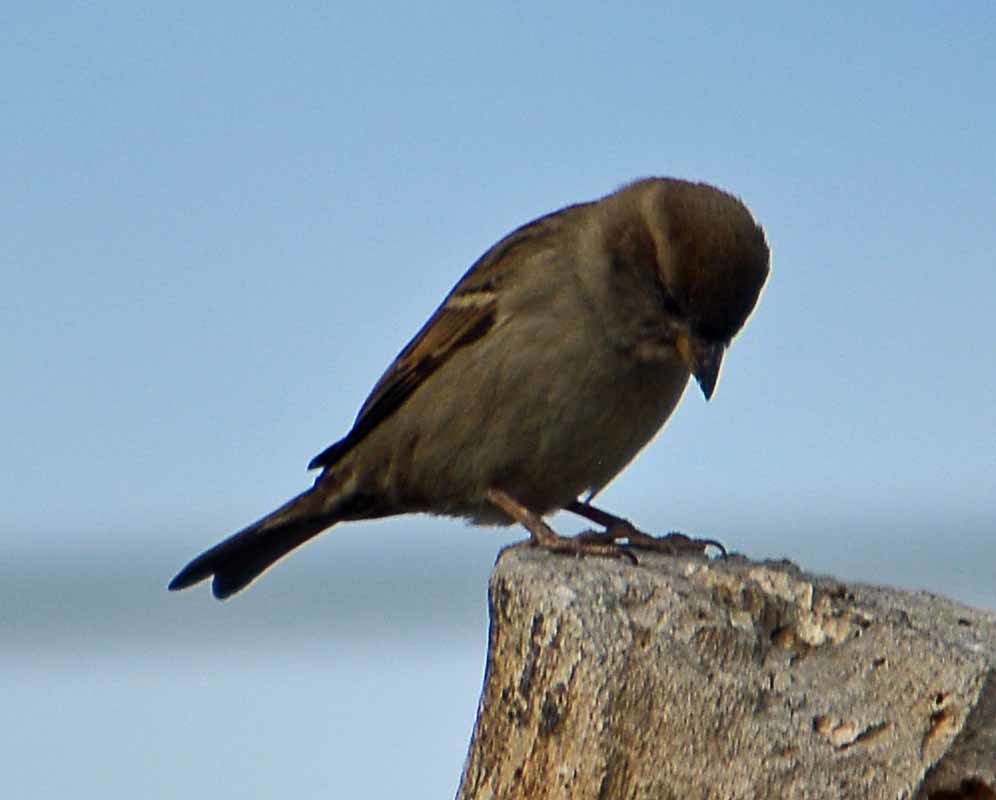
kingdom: Animalia
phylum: Chordata
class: Aves
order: Passeriformes
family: Passeridae
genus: Passer
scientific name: Passer domesticus
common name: House sparrow
